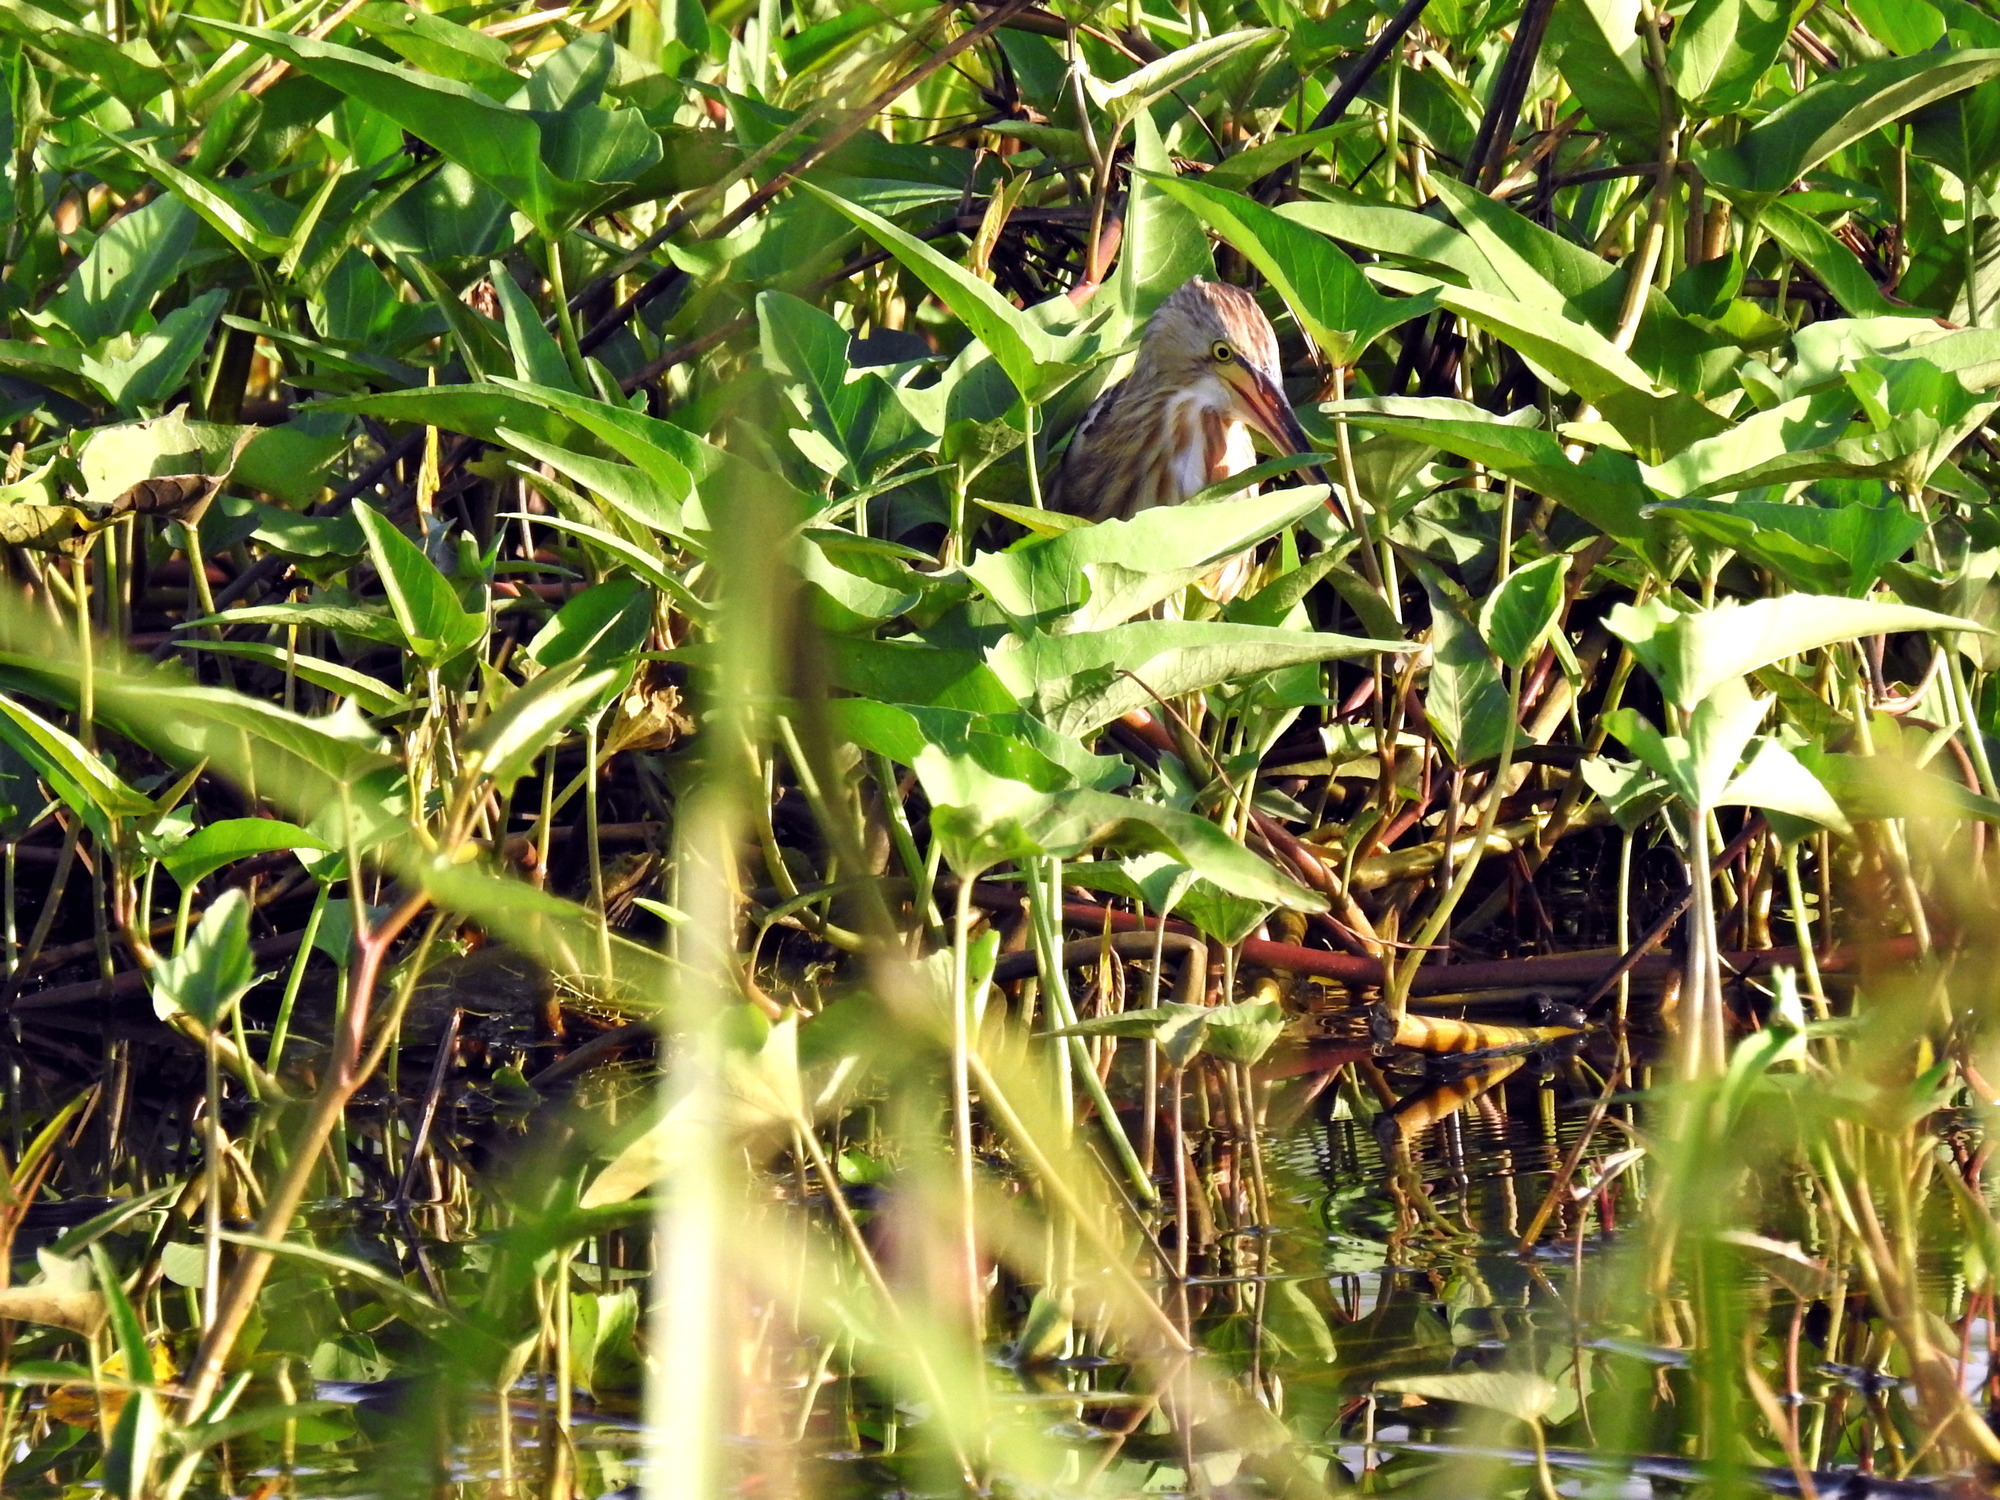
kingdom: Animalia
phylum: Chordata
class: Aves
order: Pelecaniformes
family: Ardeidae
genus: Ixobrychus
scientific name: Ixobrychus sinensis
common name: Yellow bittern
